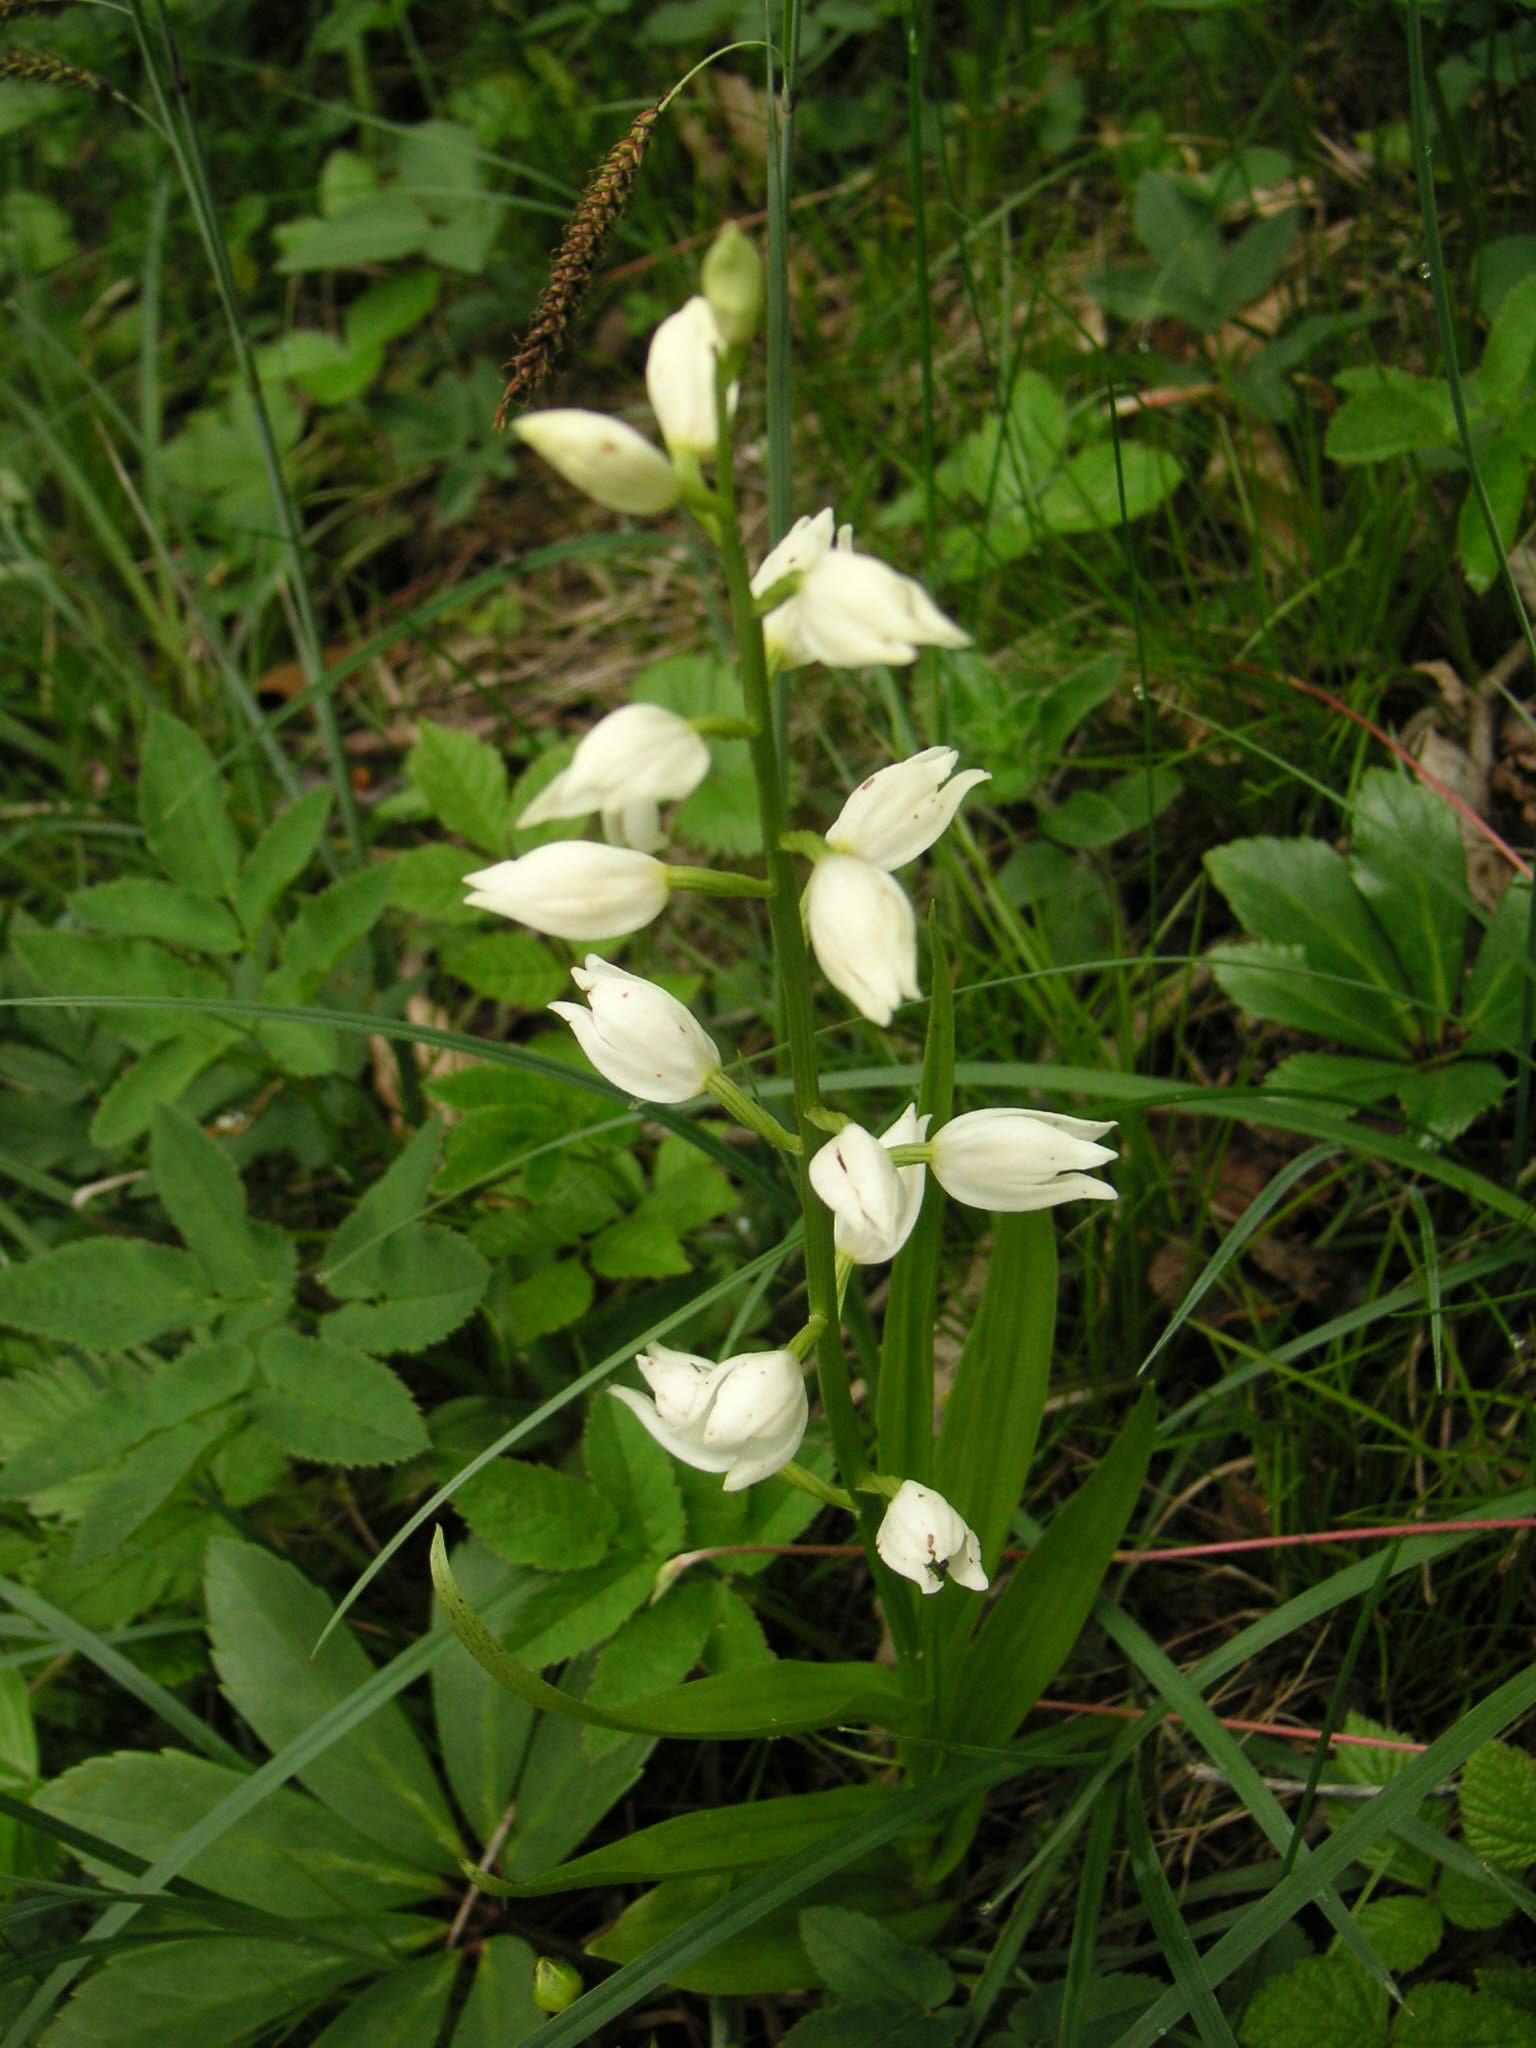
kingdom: Plantae
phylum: Tracheophyta
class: Liliopsida
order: Asparagales
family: Orchidaceae
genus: Cephalanthera
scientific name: Cephalanthera longifolia
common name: Narrow-leaved helleborine
